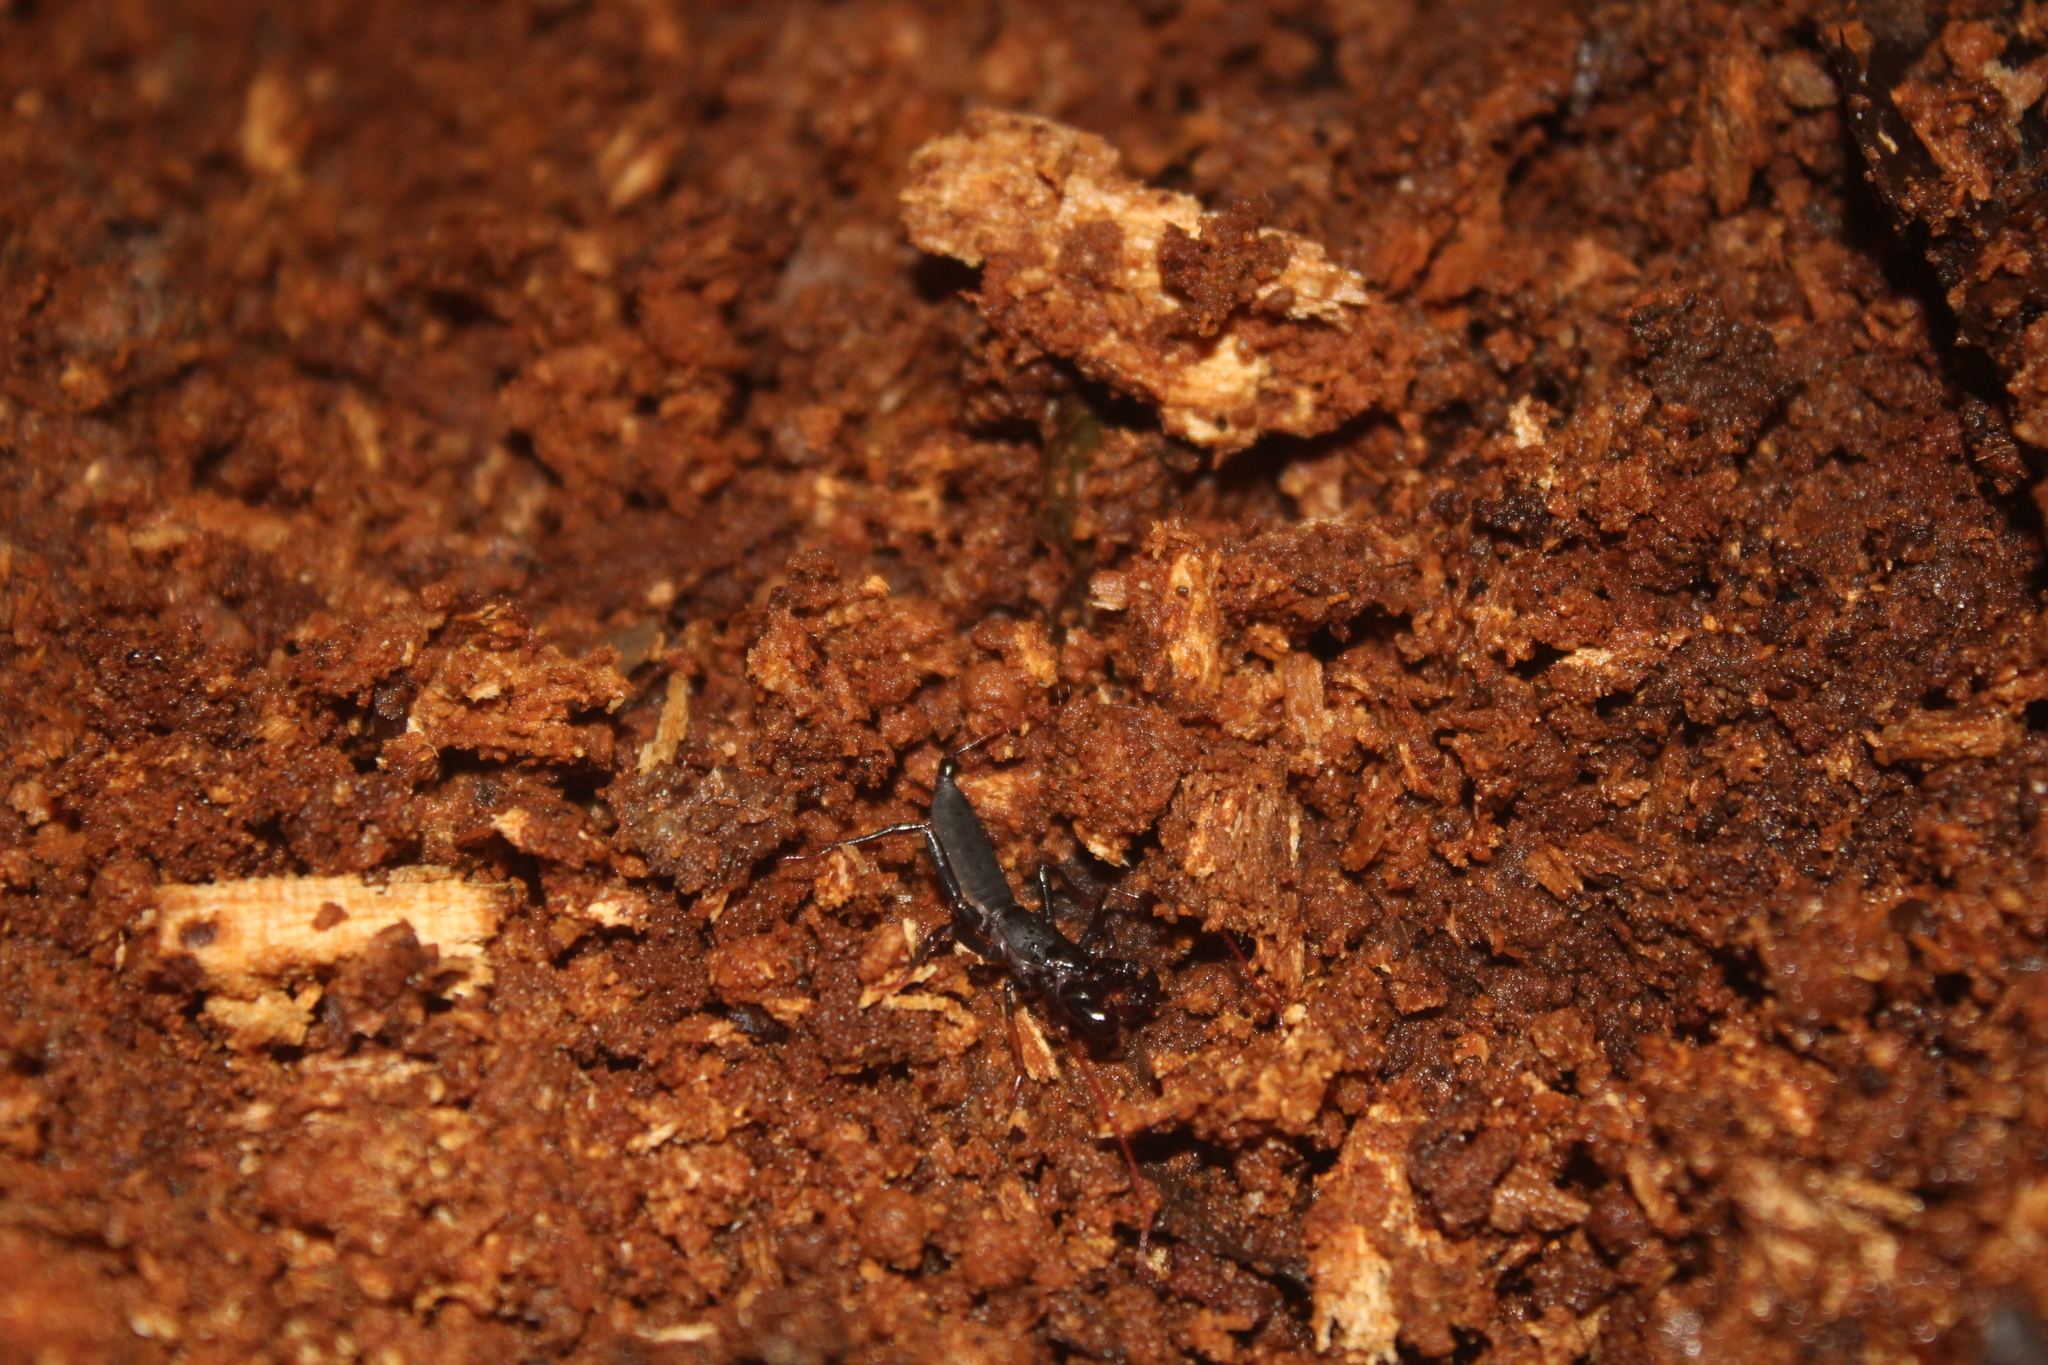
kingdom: Animalia
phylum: Arthropoda
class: Arachnida
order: Uropygi
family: Thelyphonidae
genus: Labochirus
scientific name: Labochirus tauricornis
